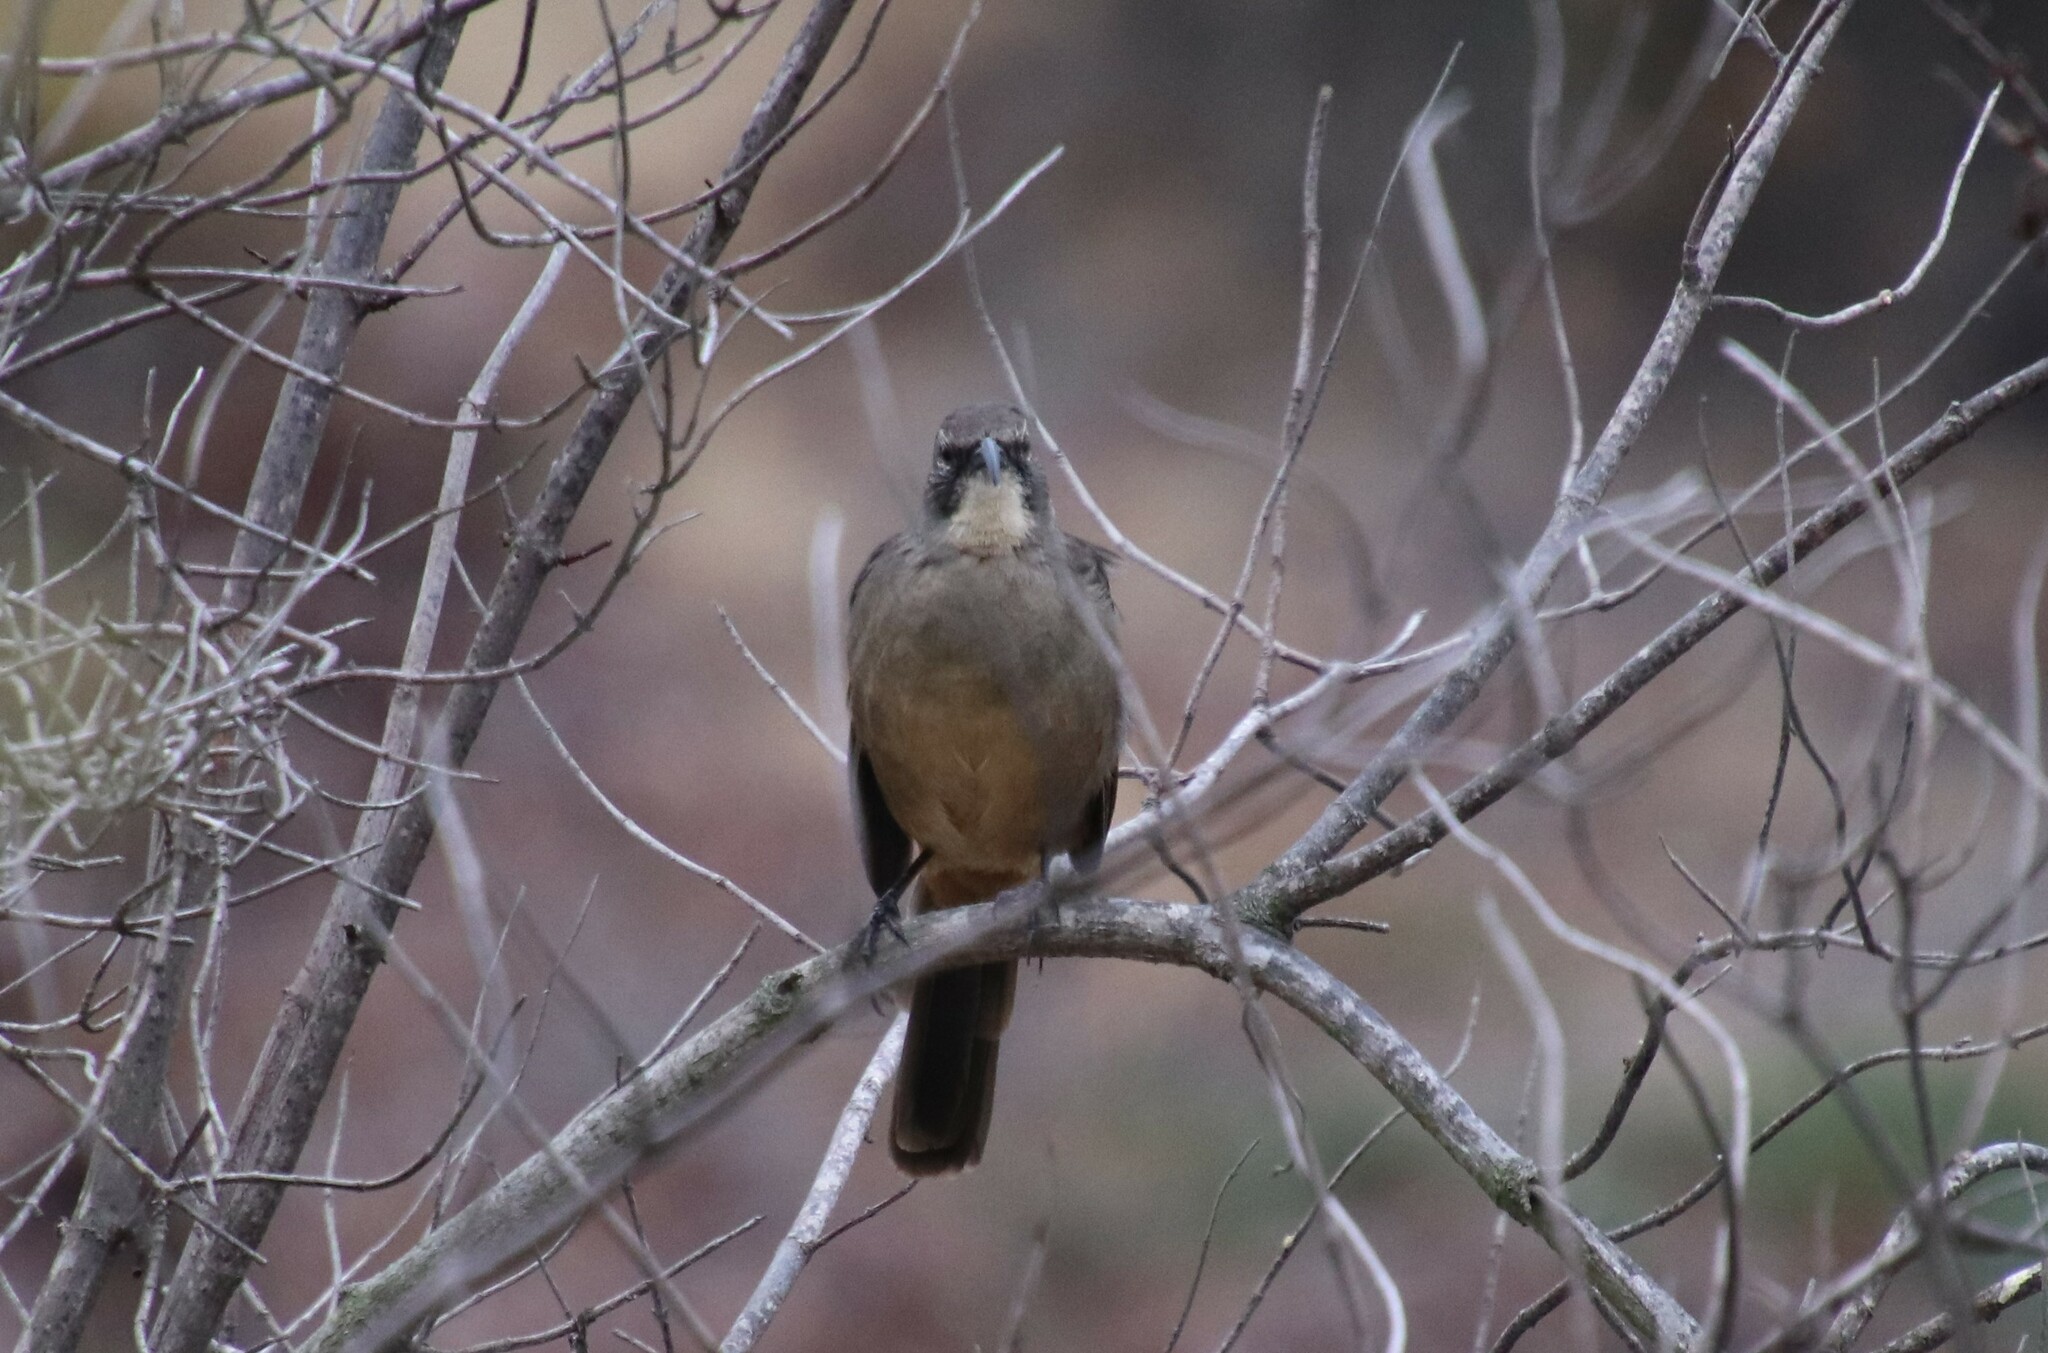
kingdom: Animalia
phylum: Chordata
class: Aves
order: Passeriformes
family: Mimidae
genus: Toxostoma
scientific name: Toxostoma redivivum
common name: California thrasher
